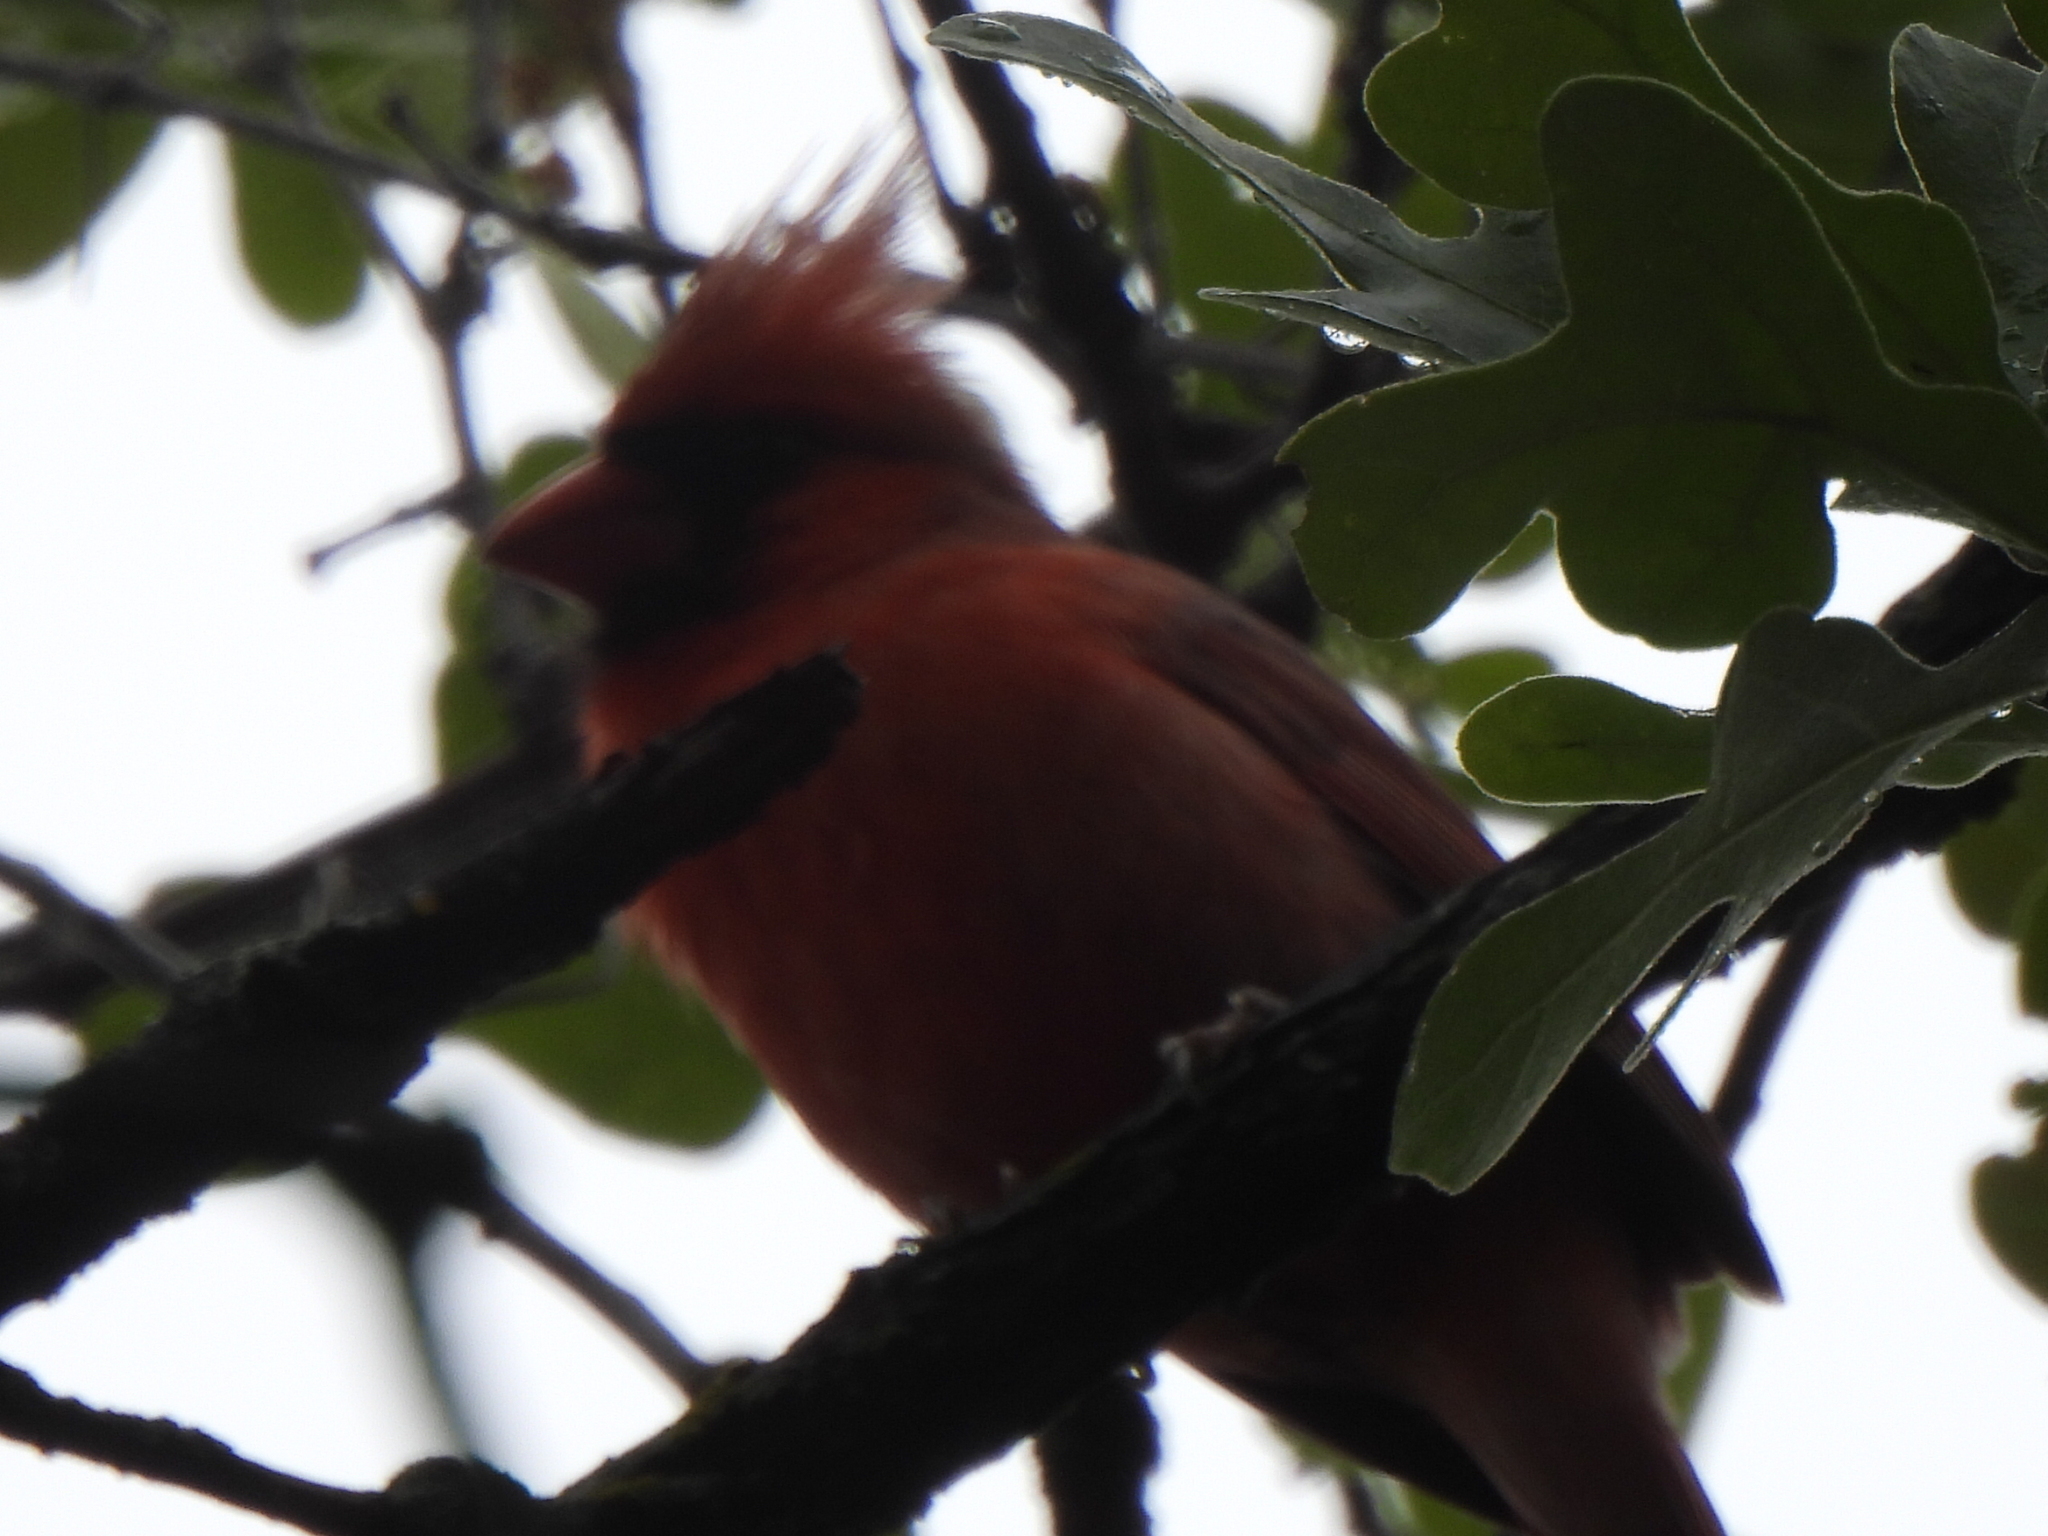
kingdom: Animalia
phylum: Chordata
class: Aves
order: Passeriformes
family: Cardinalidae
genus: Cardinalis
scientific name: Cardinalis cardinalis
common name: Northern cardinal
